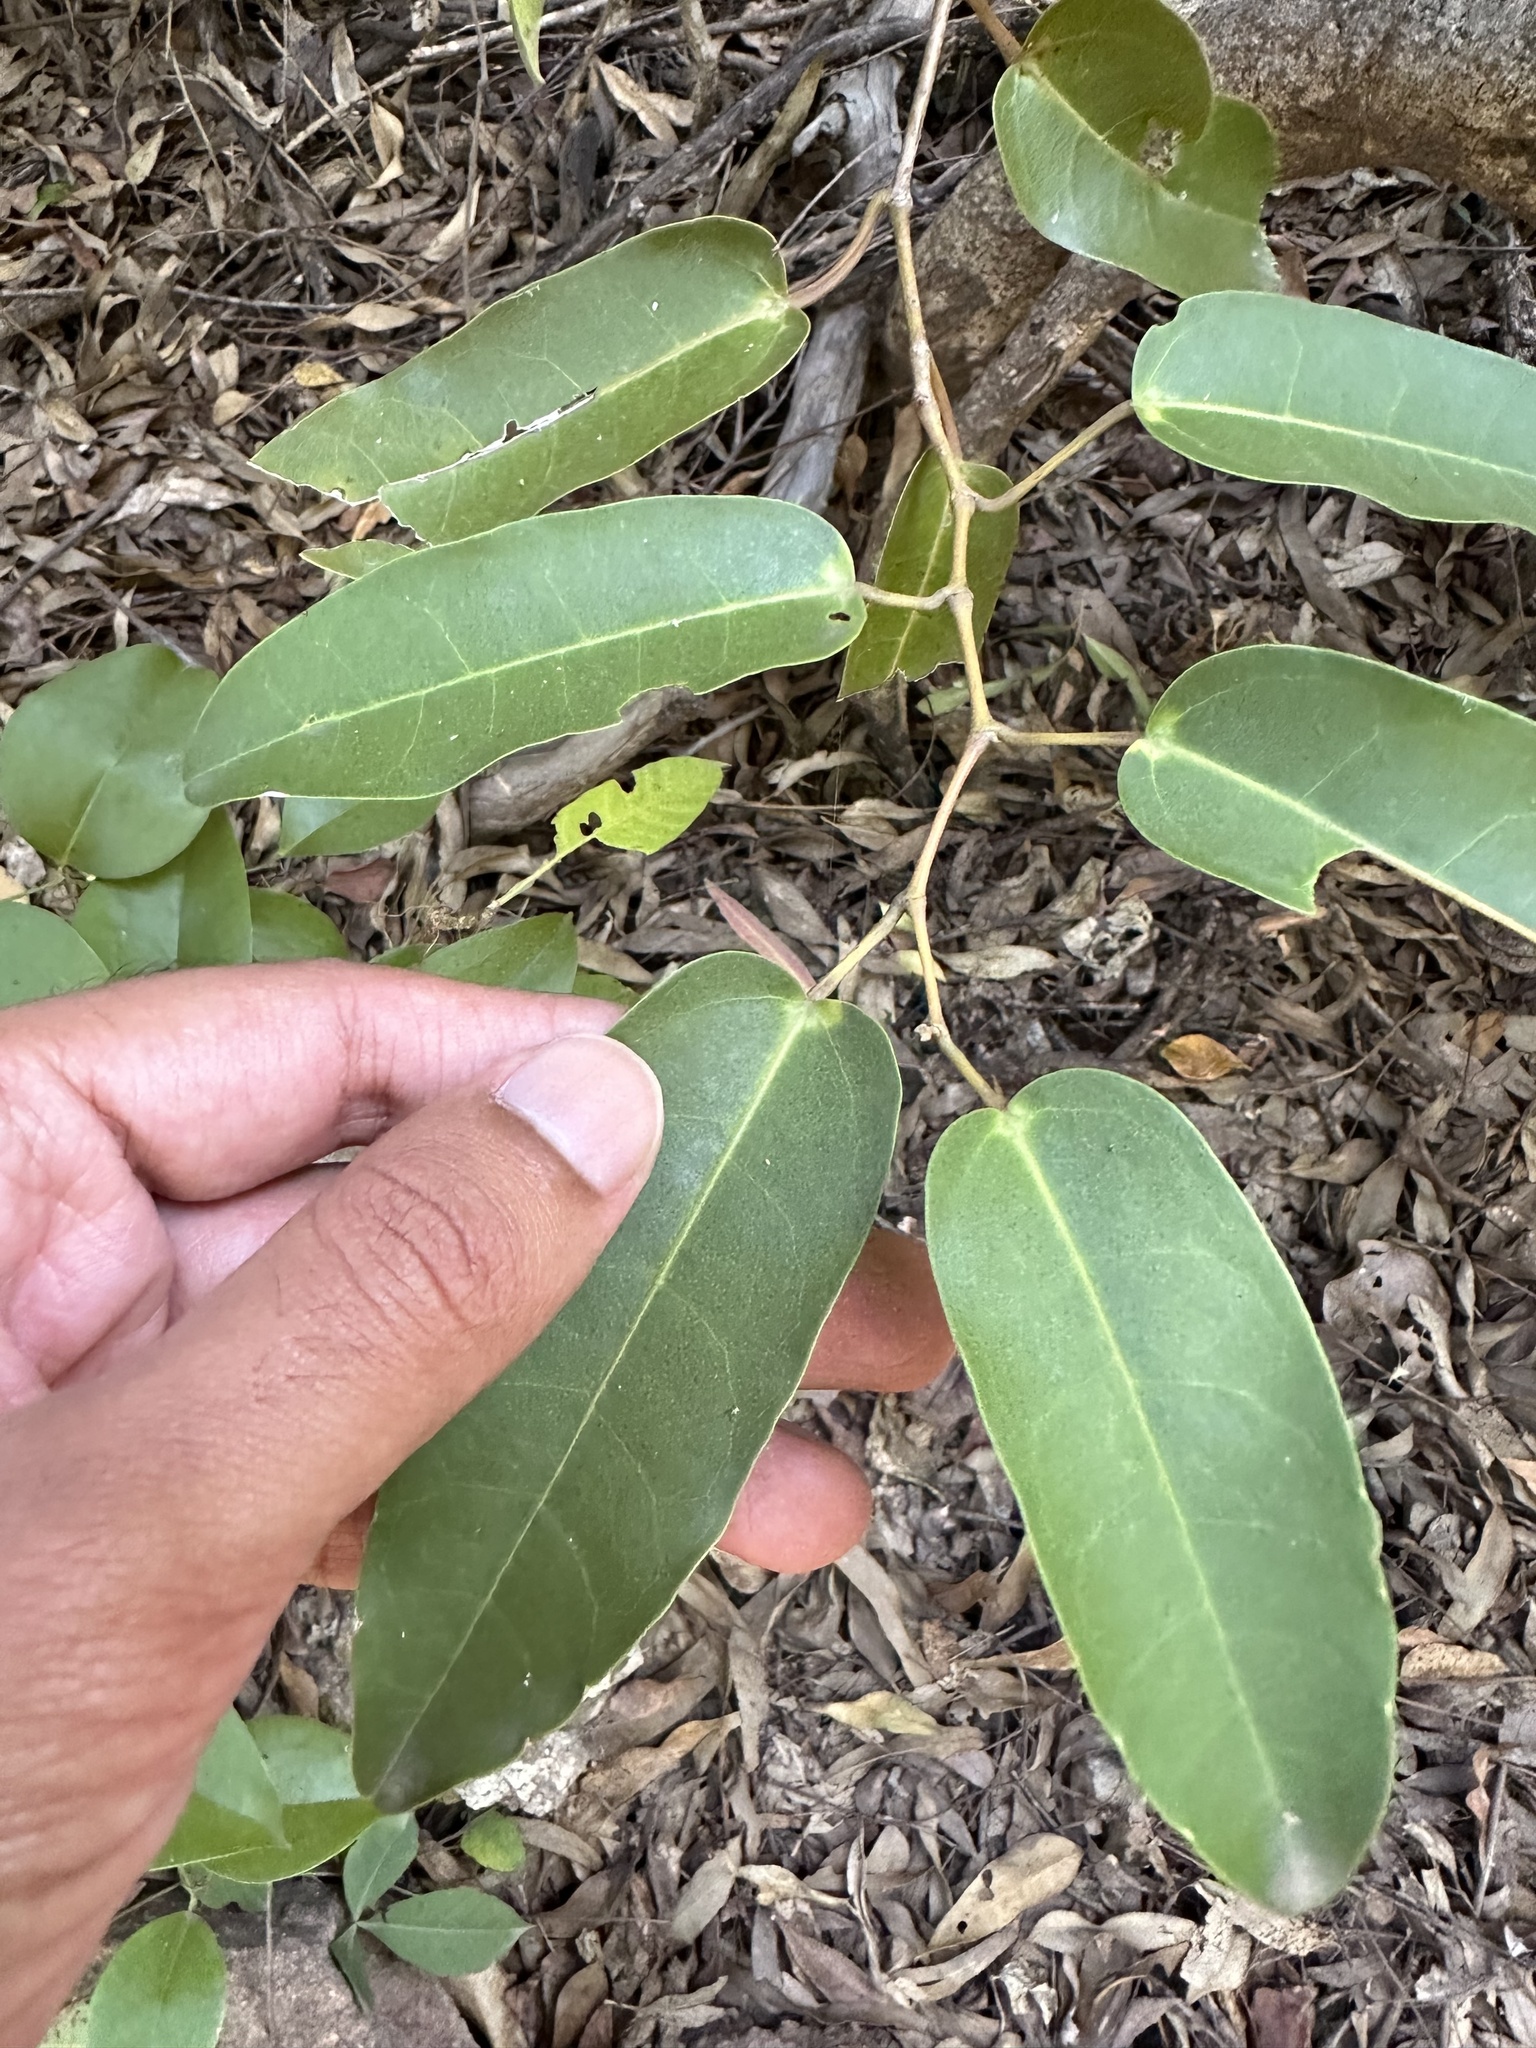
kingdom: Plantae
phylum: Tracheophyta
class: Magnoliopsida
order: Vitales
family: Vitaceae
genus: Cissus
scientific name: Cissus oblonga
